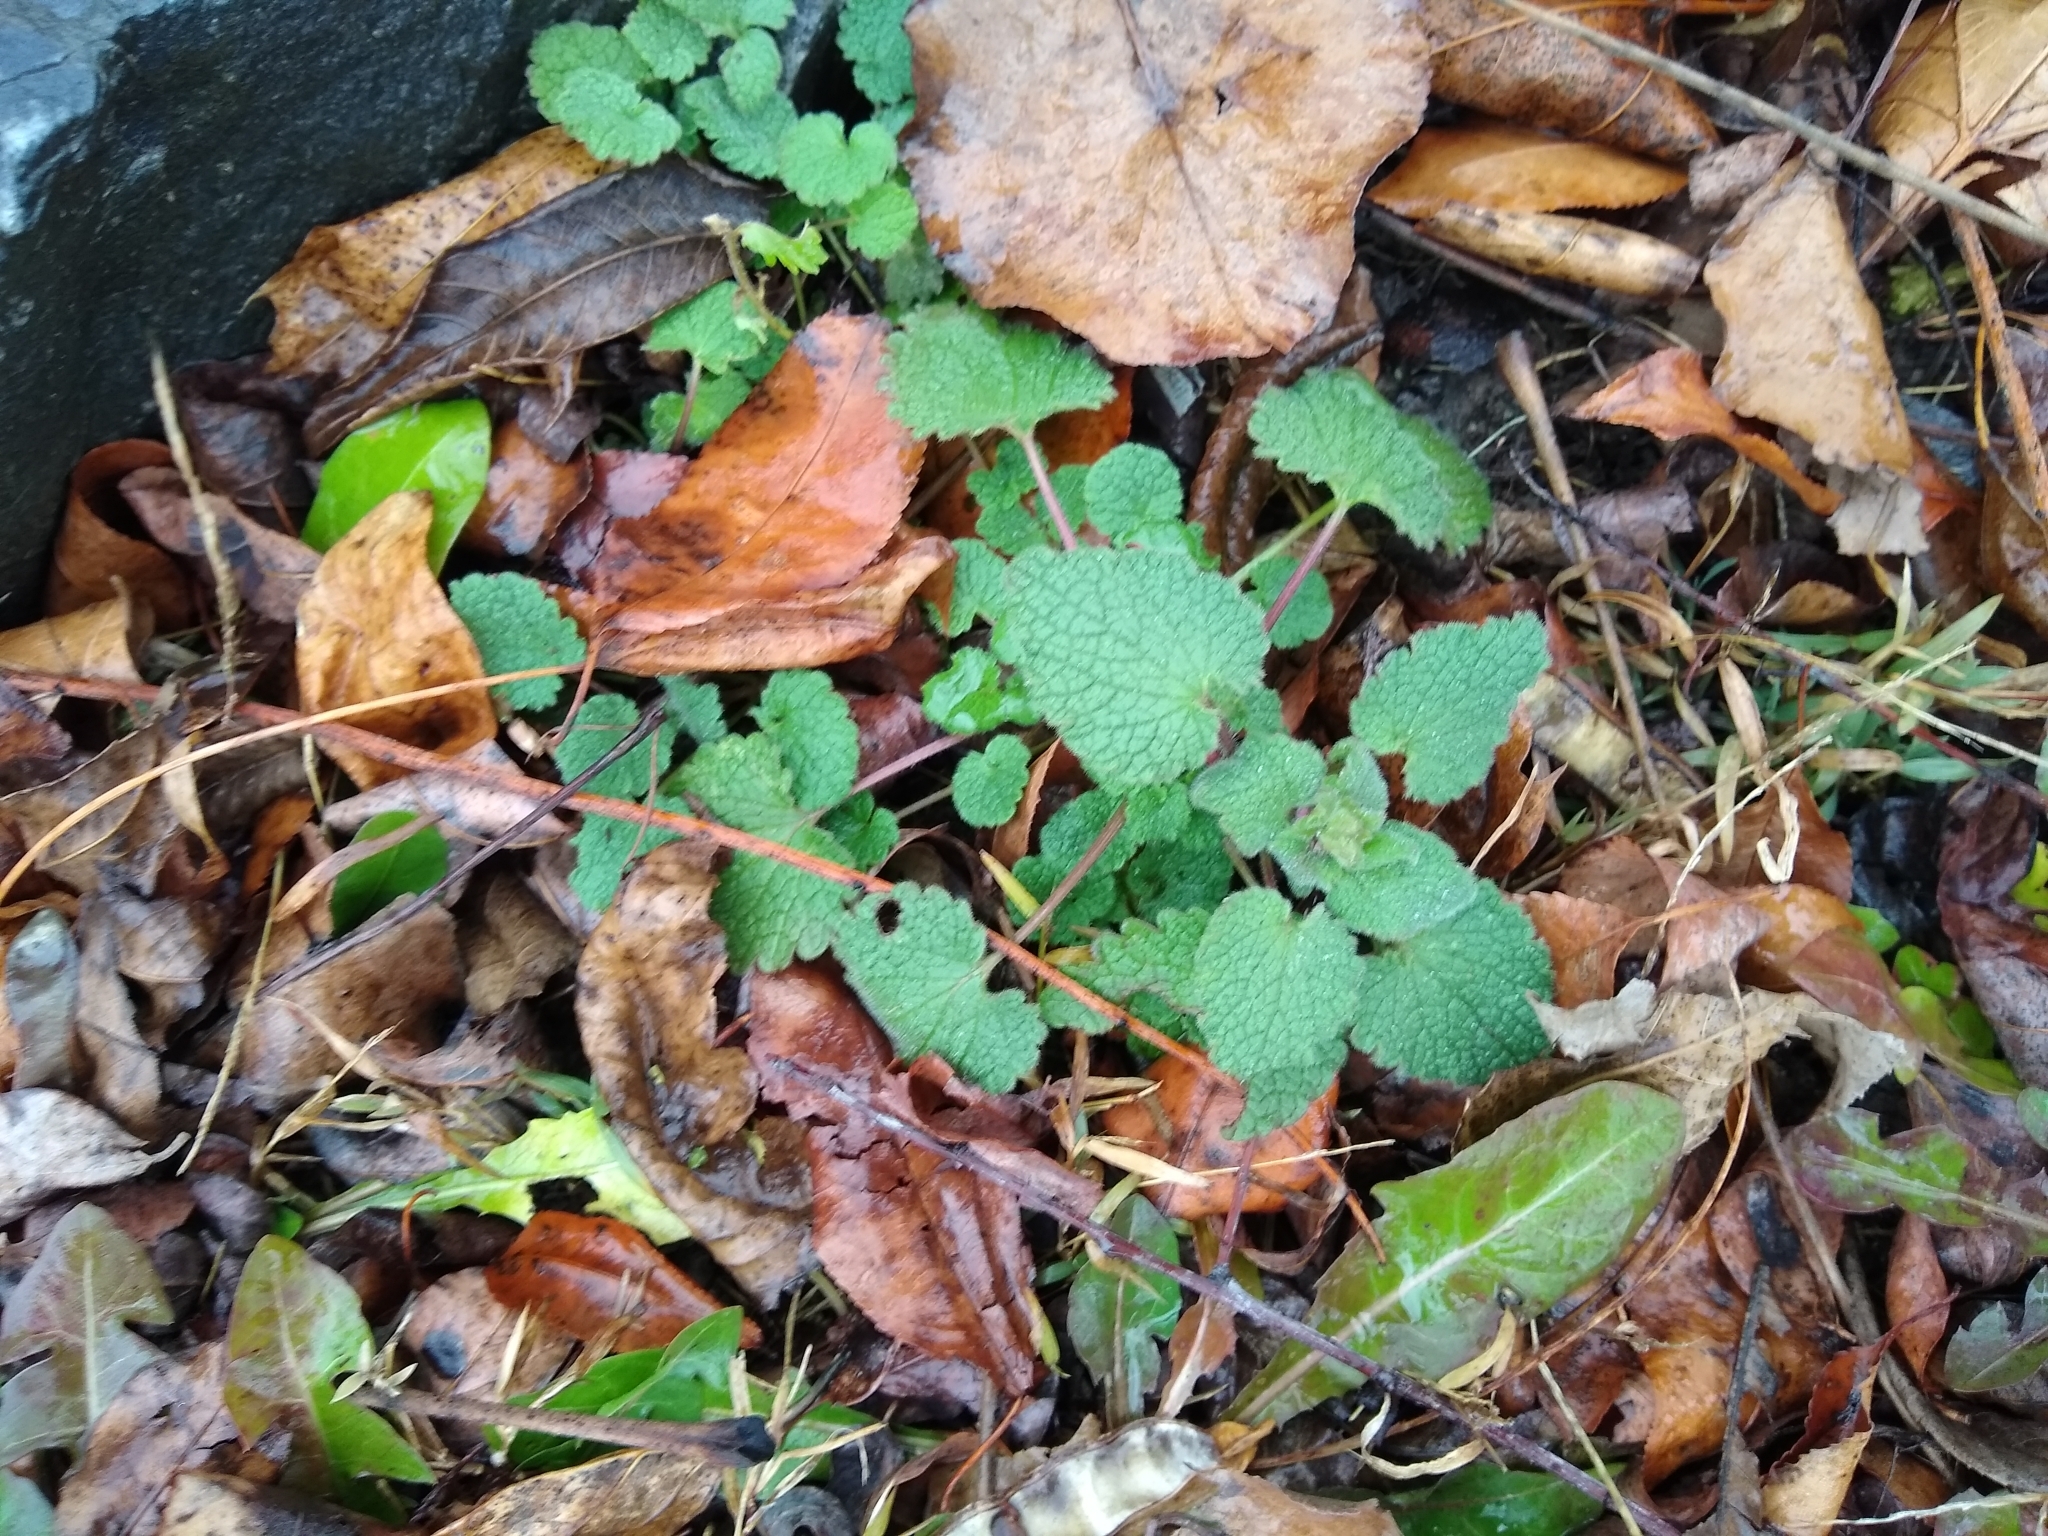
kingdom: Plantae
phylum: Tracheophyta
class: Magnoliopsida
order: Lamiales
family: Lamiaceae
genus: Lamium
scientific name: Lamium purpureum
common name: Red dead-nettle
